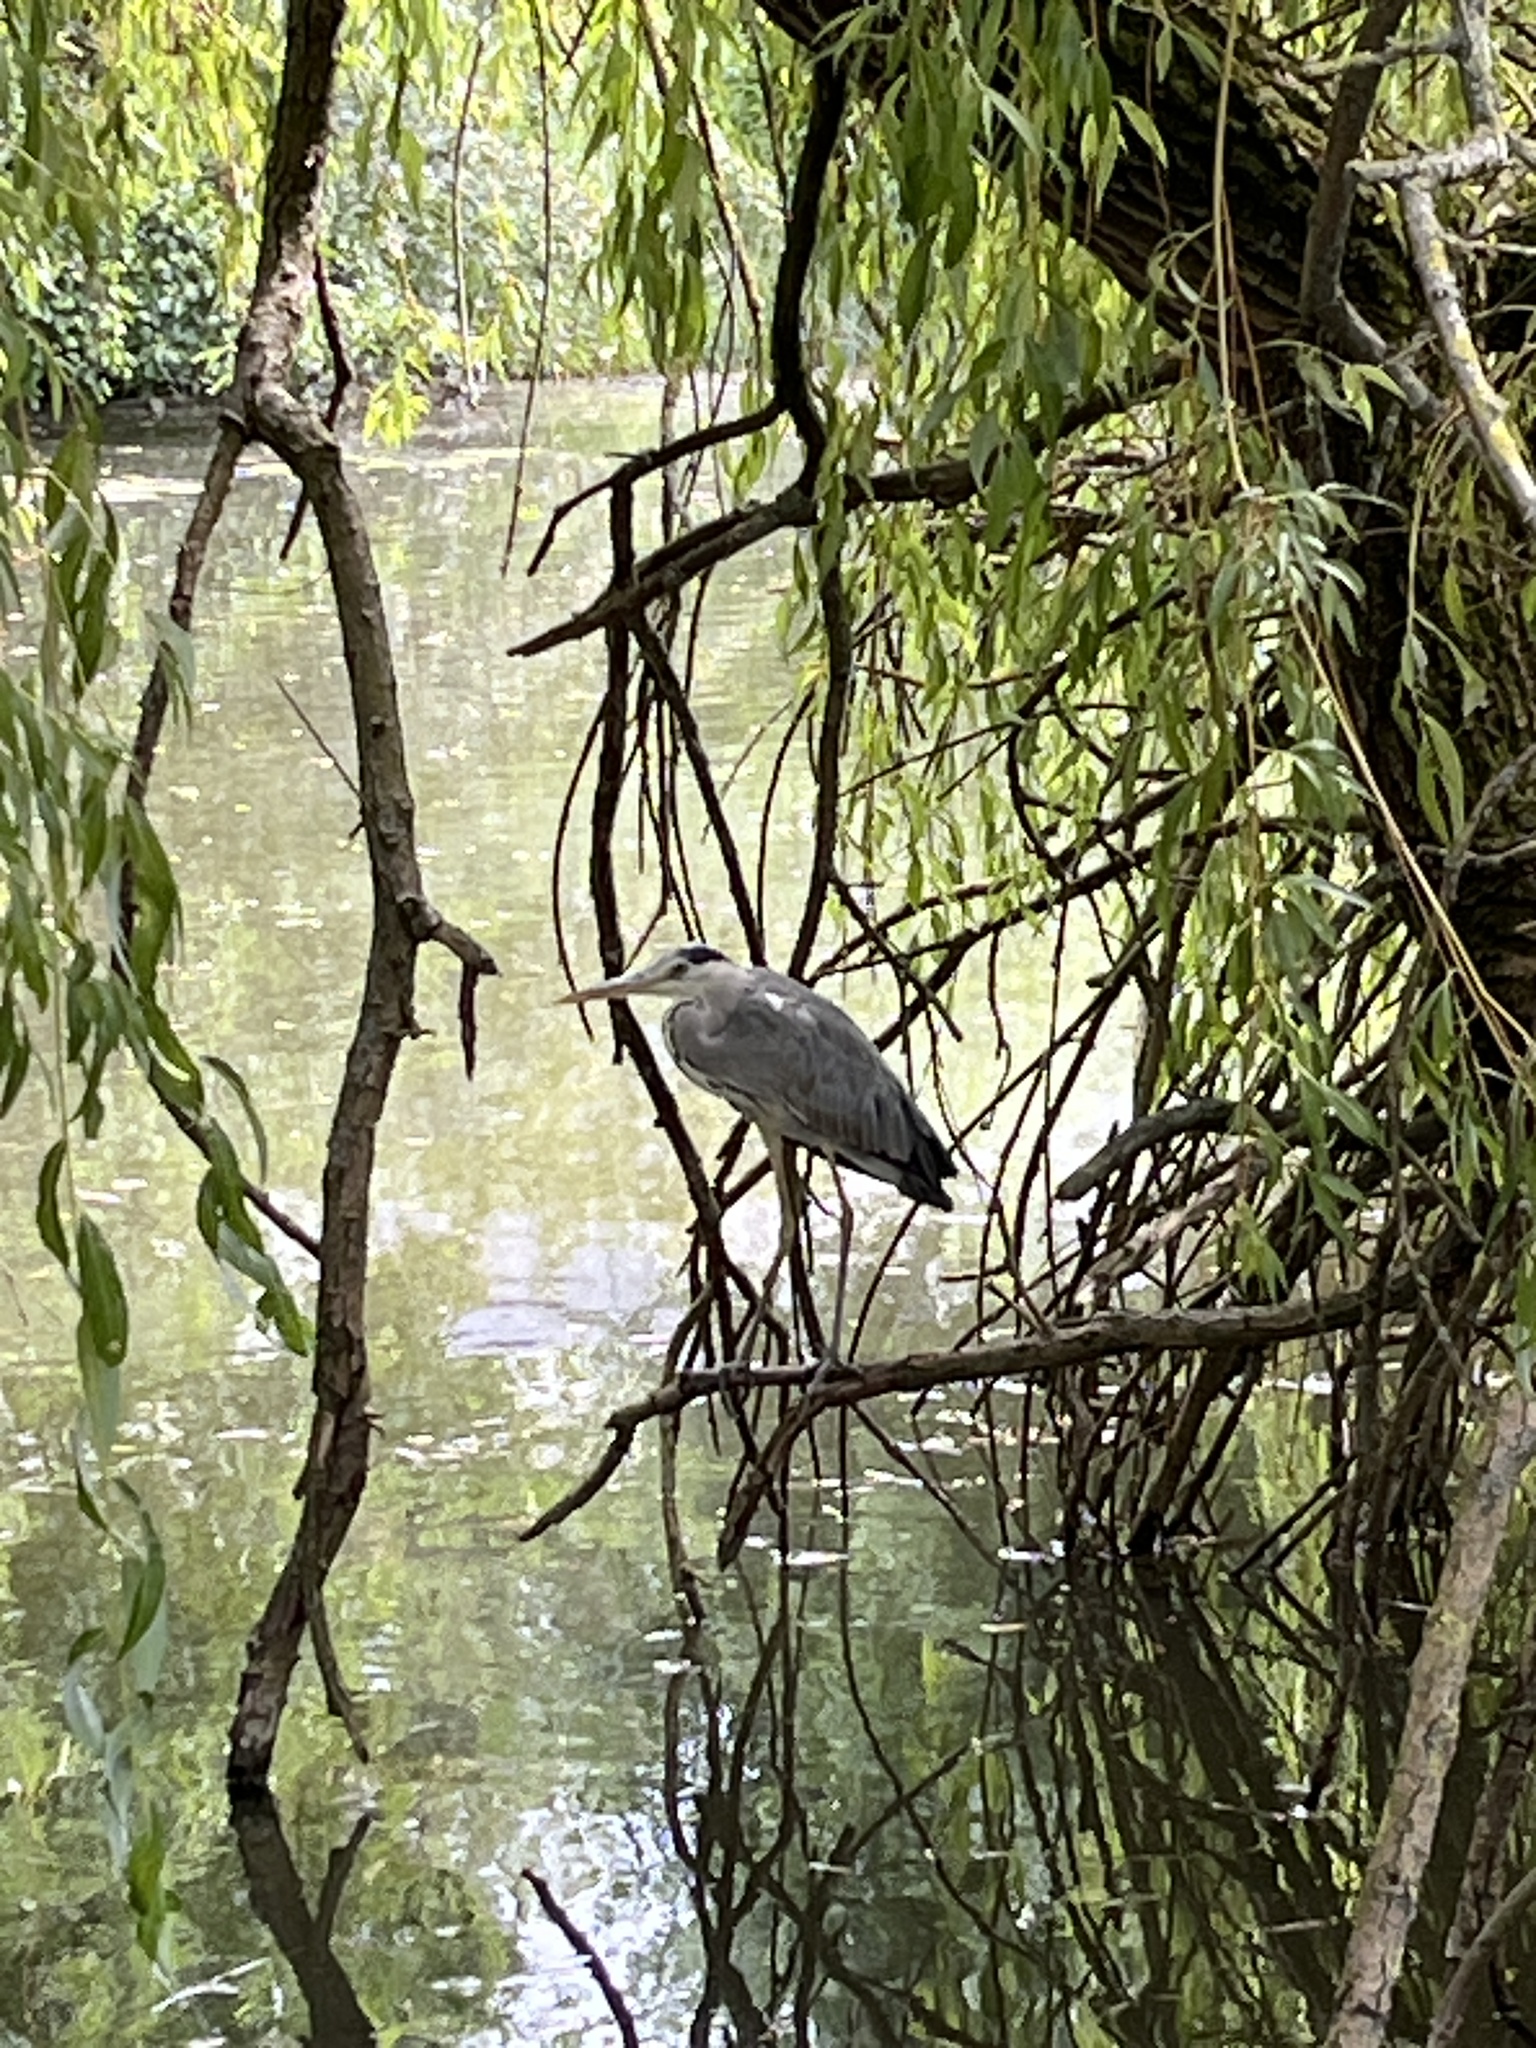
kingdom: Animalia
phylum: Chordata
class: Aves
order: Pelecaniformes
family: Ardeidae
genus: Ardea
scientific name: Ardea cinerea
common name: Grey heron
